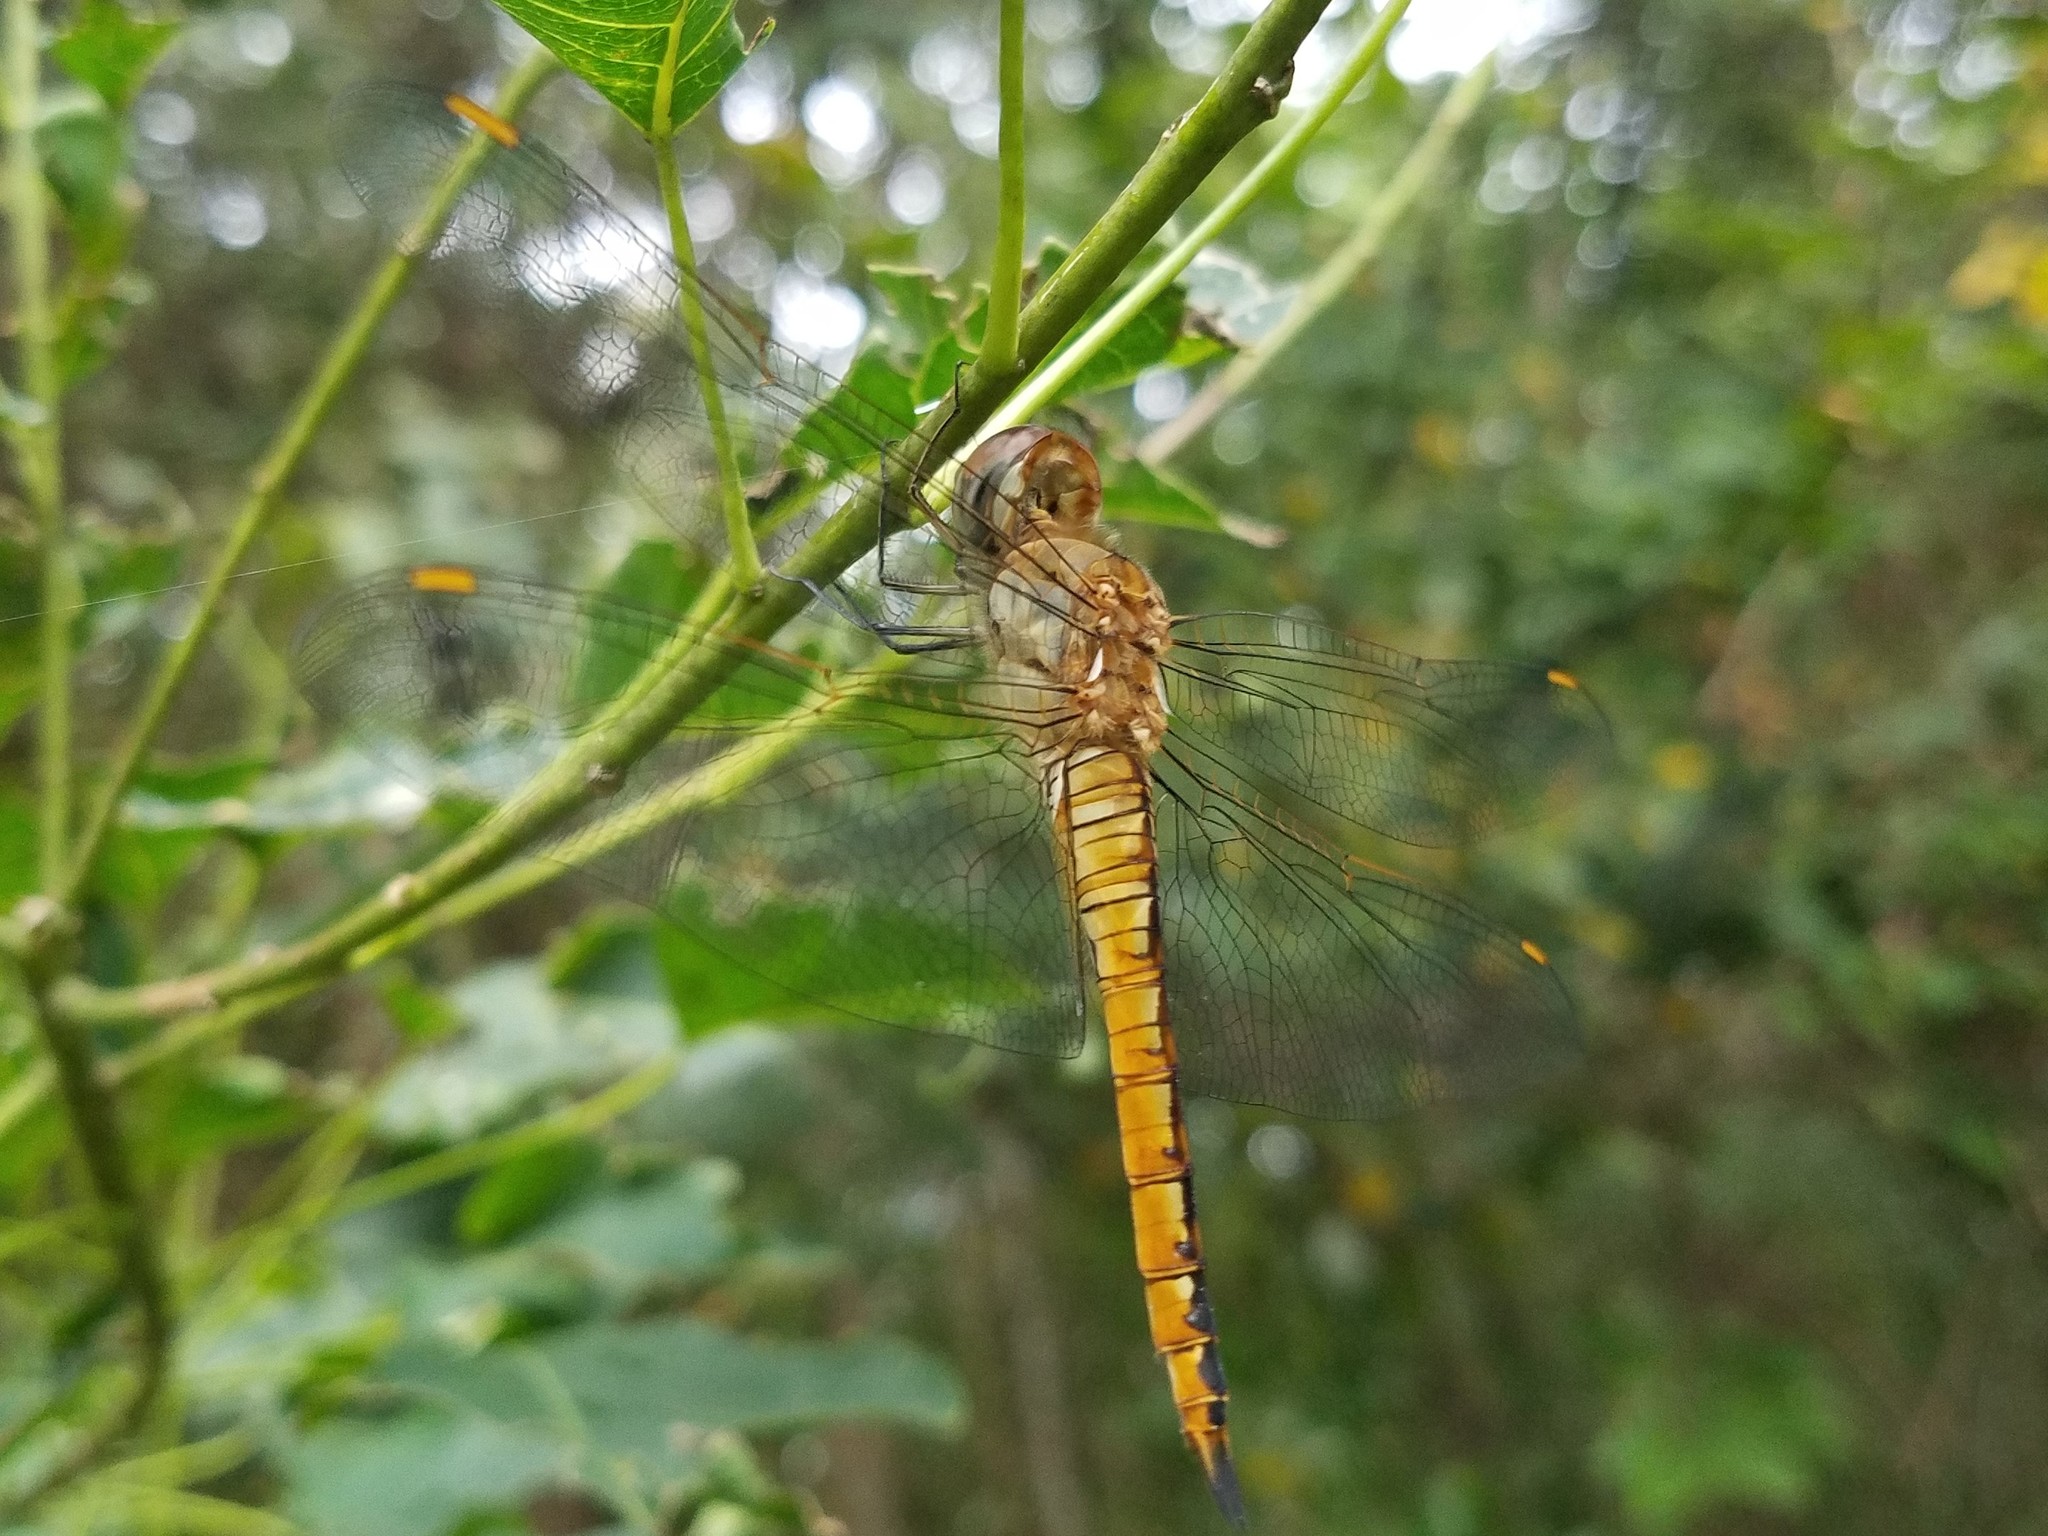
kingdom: Animalia
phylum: Arthropoda
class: Insecta
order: Odonata
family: Libellulidae
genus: Pantala
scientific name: Pantala flavescens
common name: Wandering glider
